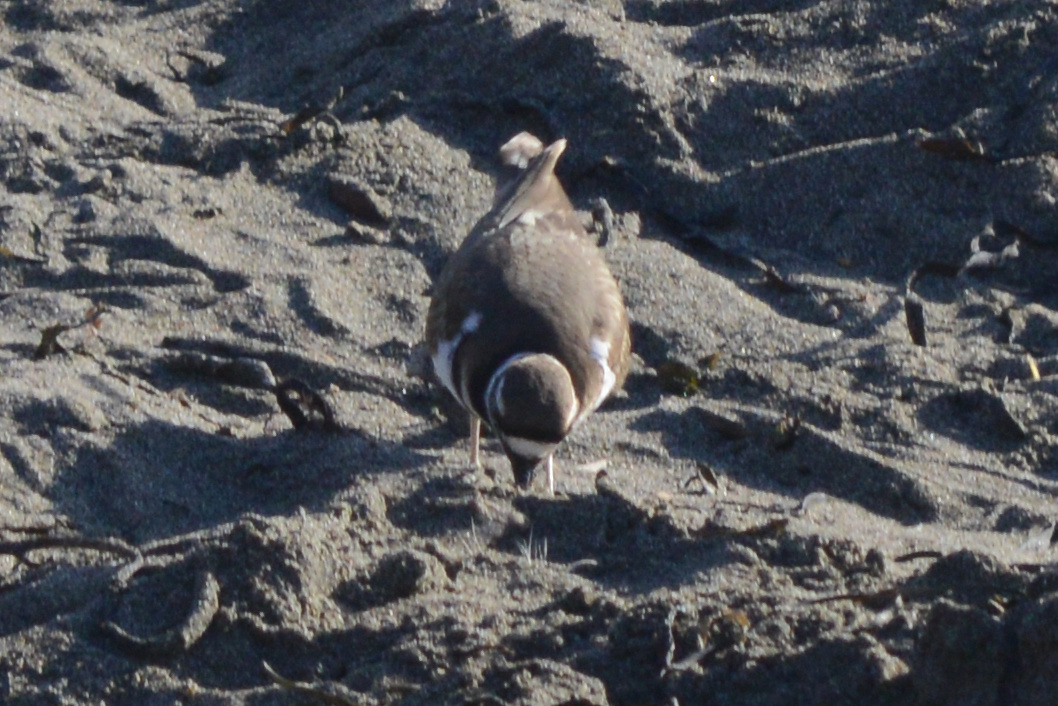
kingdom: Animalia
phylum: Chordata
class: Aves
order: Charadriiformes
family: Charadriidae
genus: Charadrius
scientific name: Charadrius vociferus
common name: Killdeer
